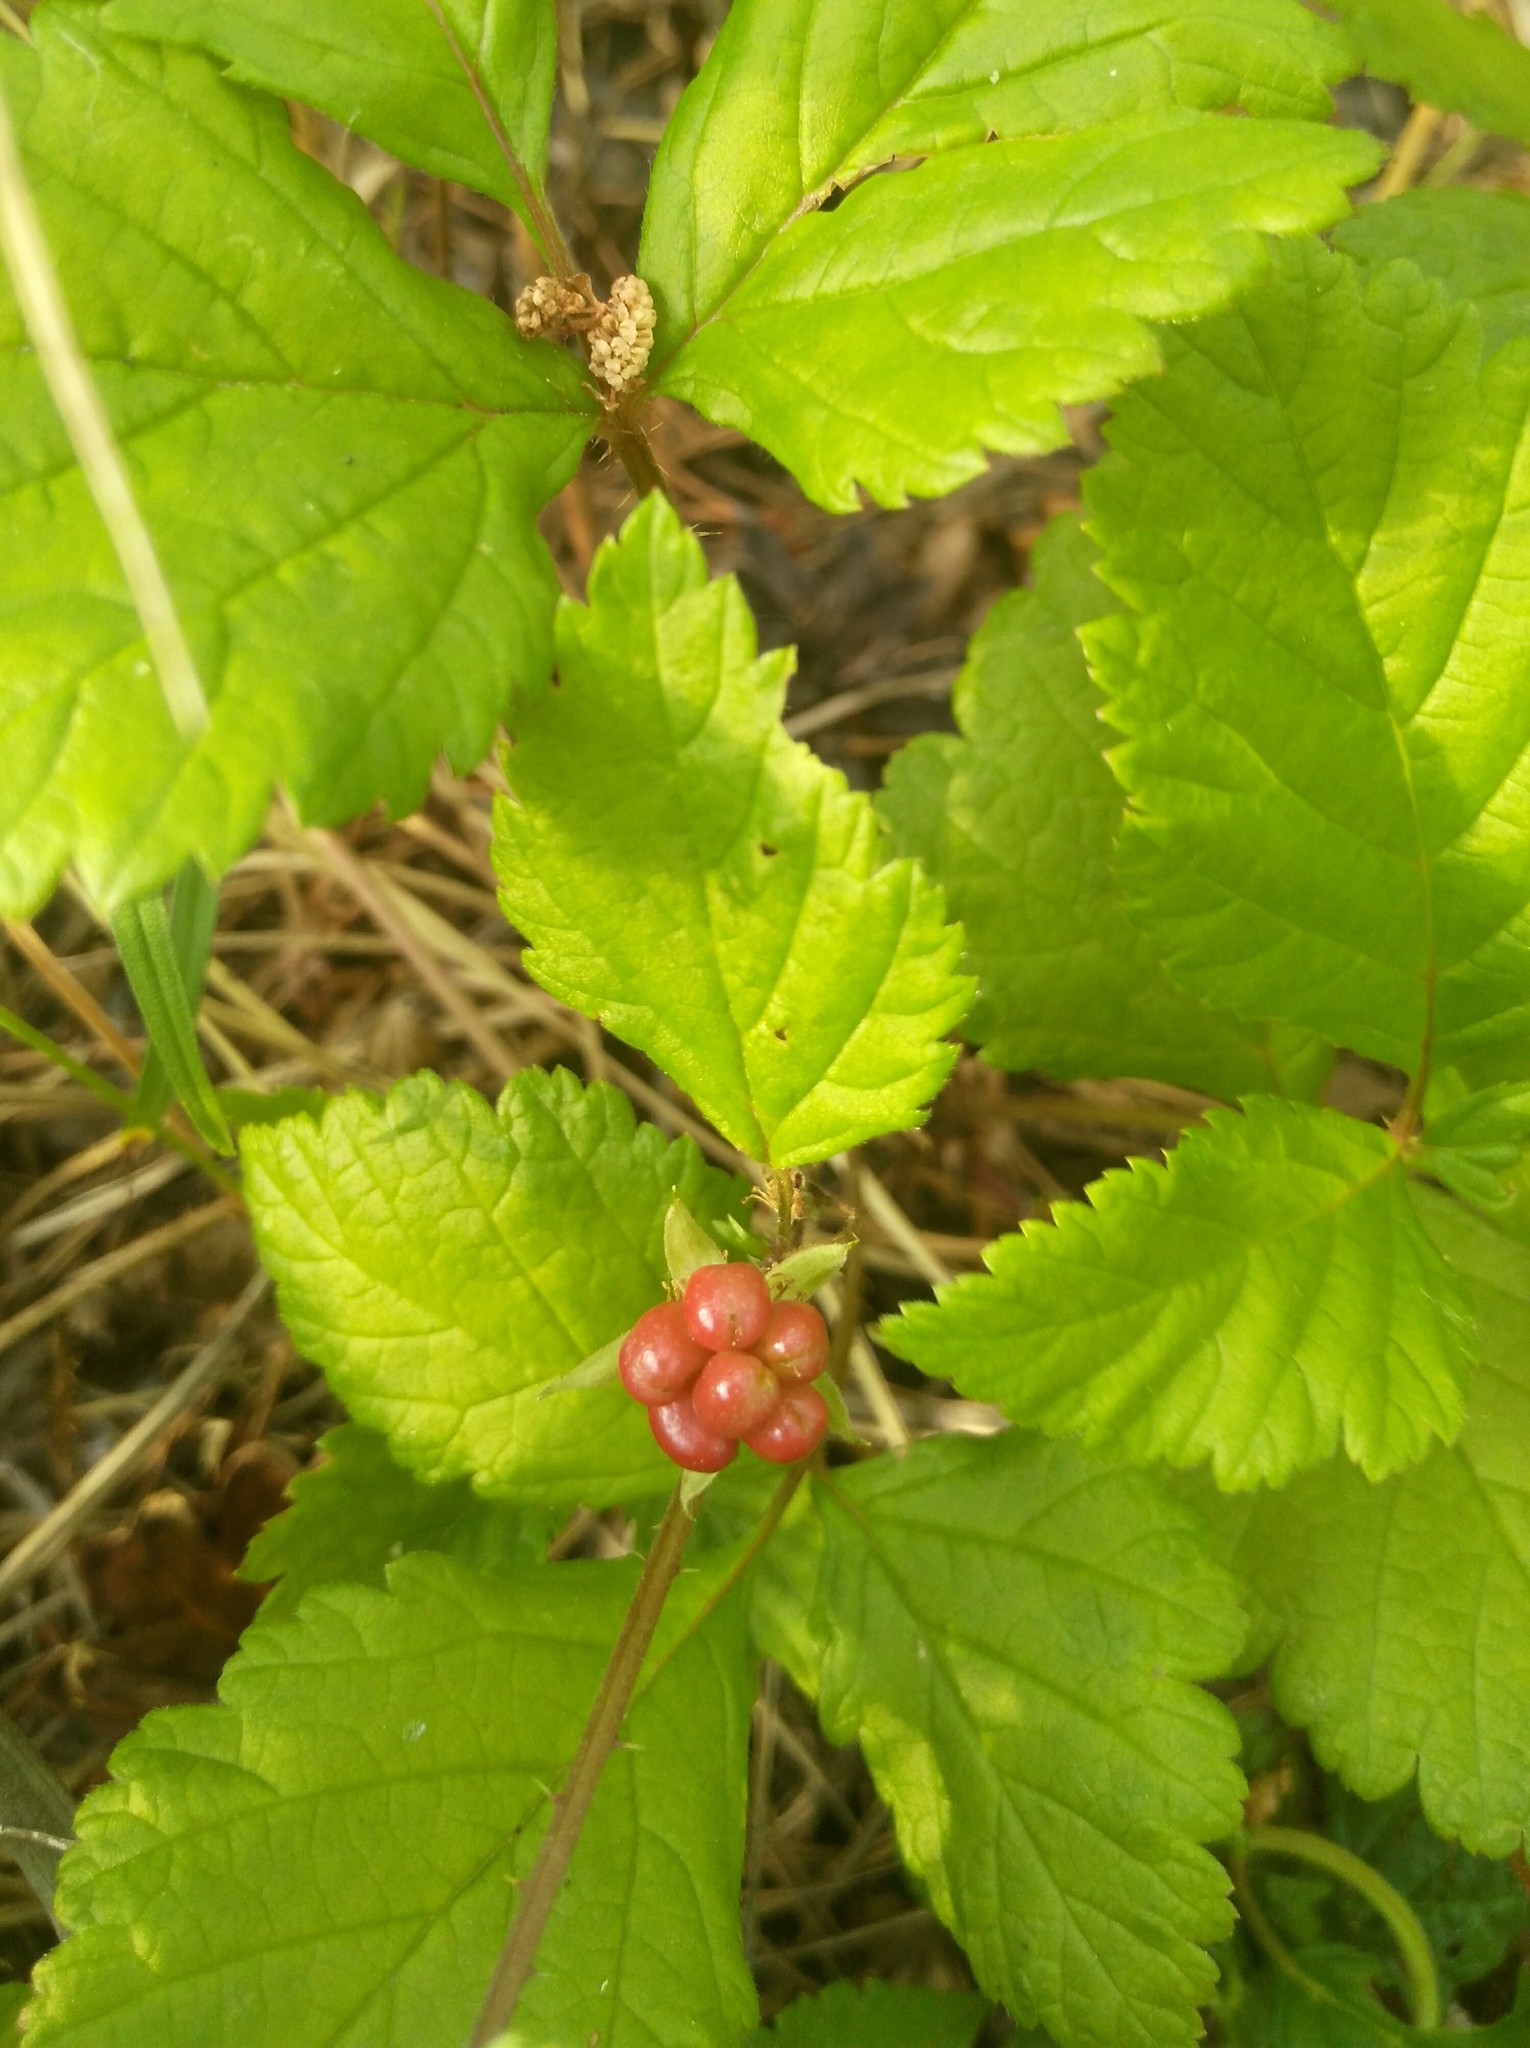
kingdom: Plantae
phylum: Tracheophyta
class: Magnoliopsida
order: Rosales
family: Rosaceae
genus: Rubus
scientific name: Rubus saxatilis
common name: Stone bramble
